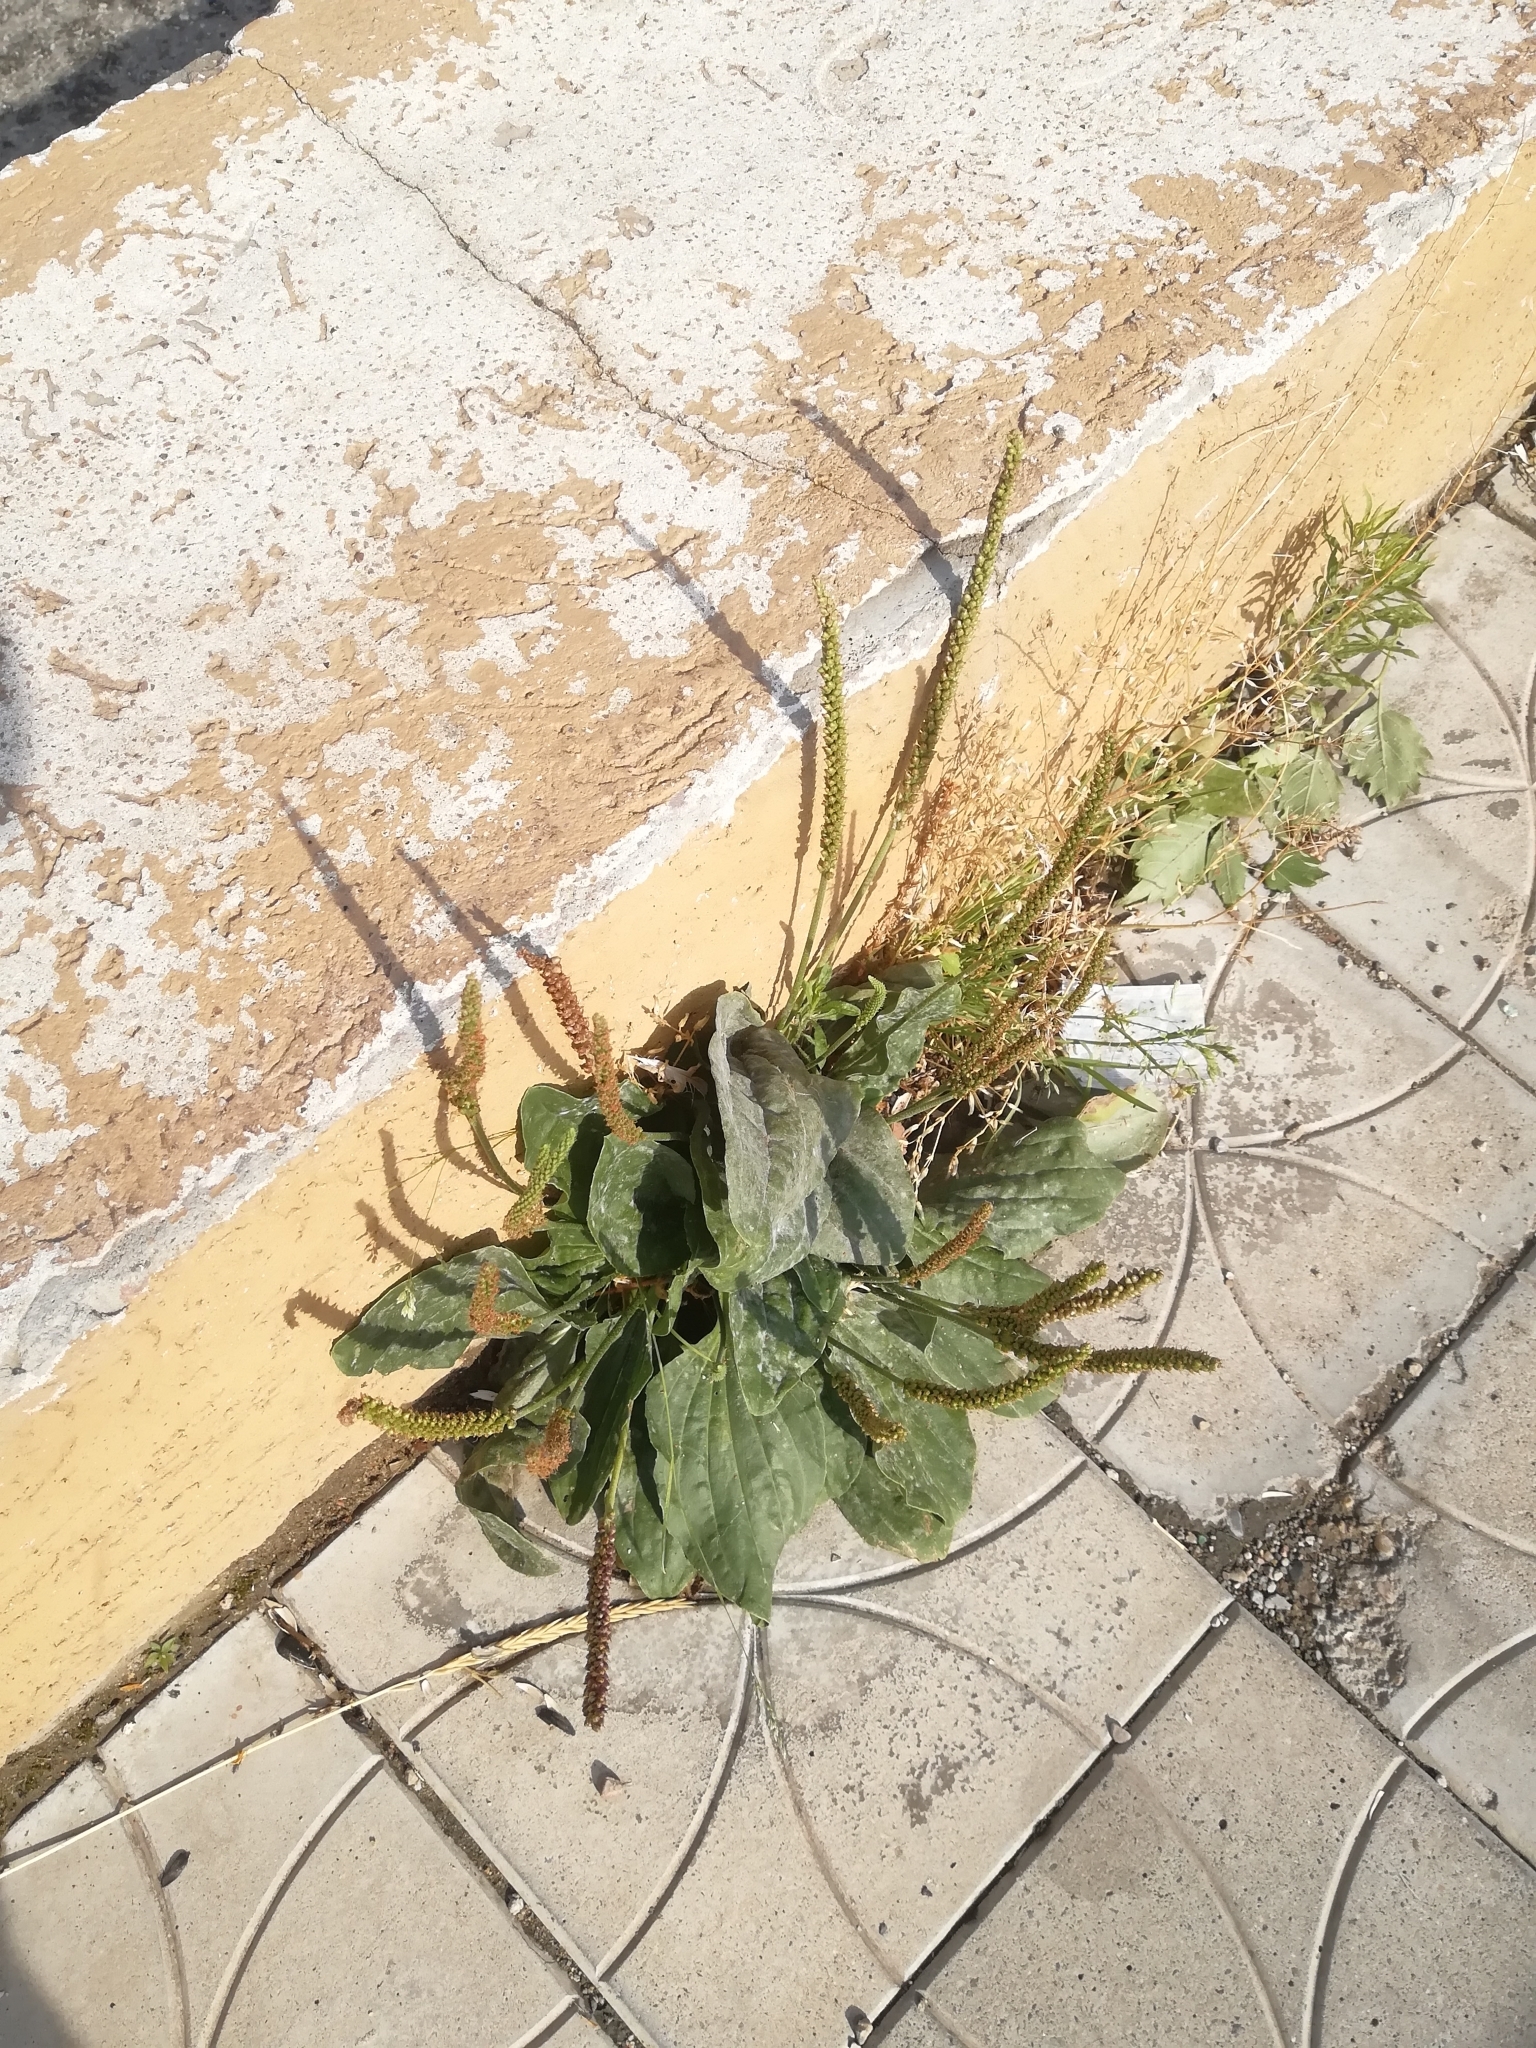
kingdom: Plantae
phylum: Tracheophyta
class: Magnoliopsida
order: Lamiales
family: Plantaginaceae
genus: Plantago
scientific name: Plantago major
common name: Common plantain
